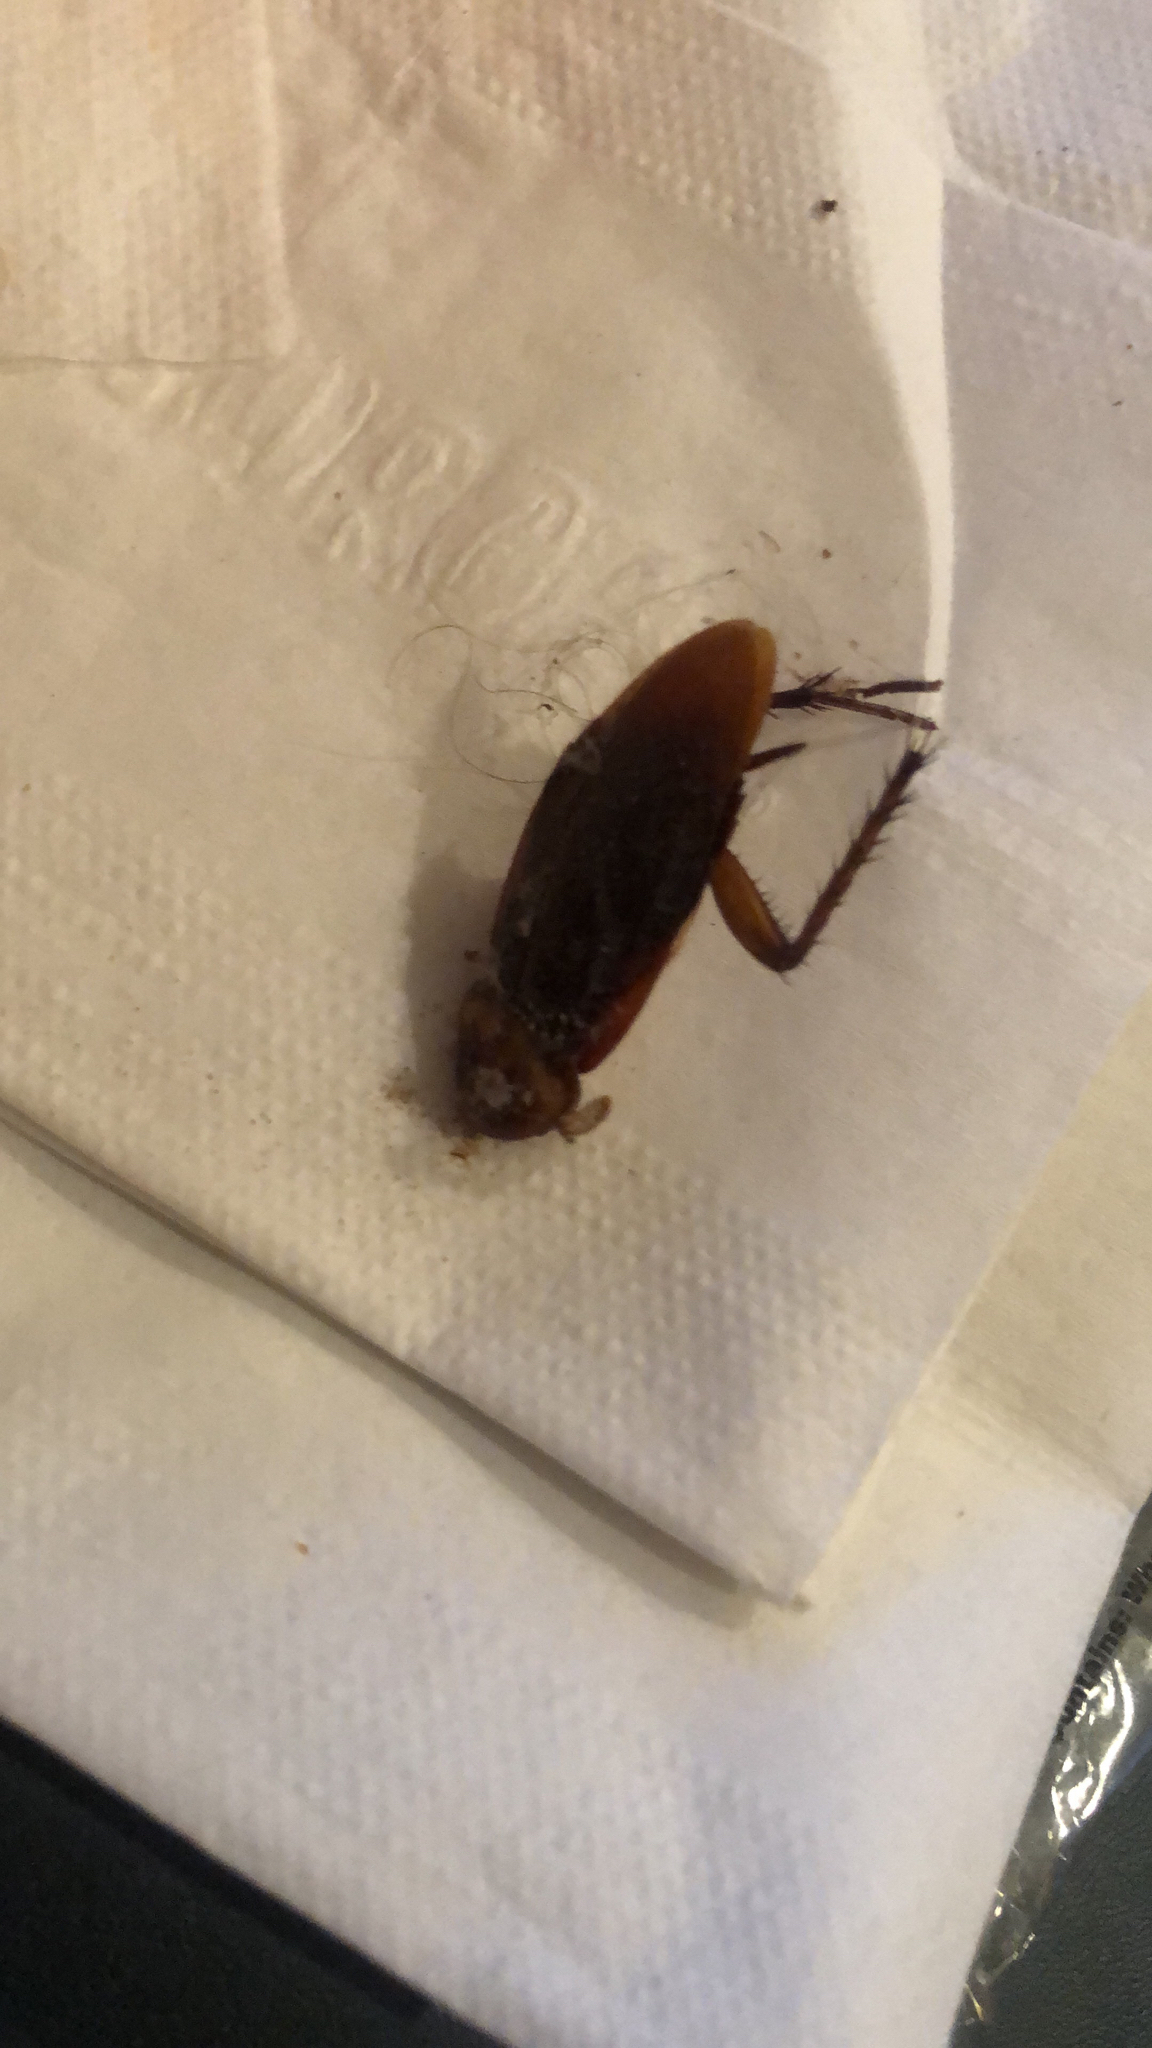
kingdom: Animalia
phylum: Arthropoda
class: Insecta
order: Blattodea
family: Blattidae
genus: Periplaneta
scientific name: Periplaneta americana
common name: American cockroach
